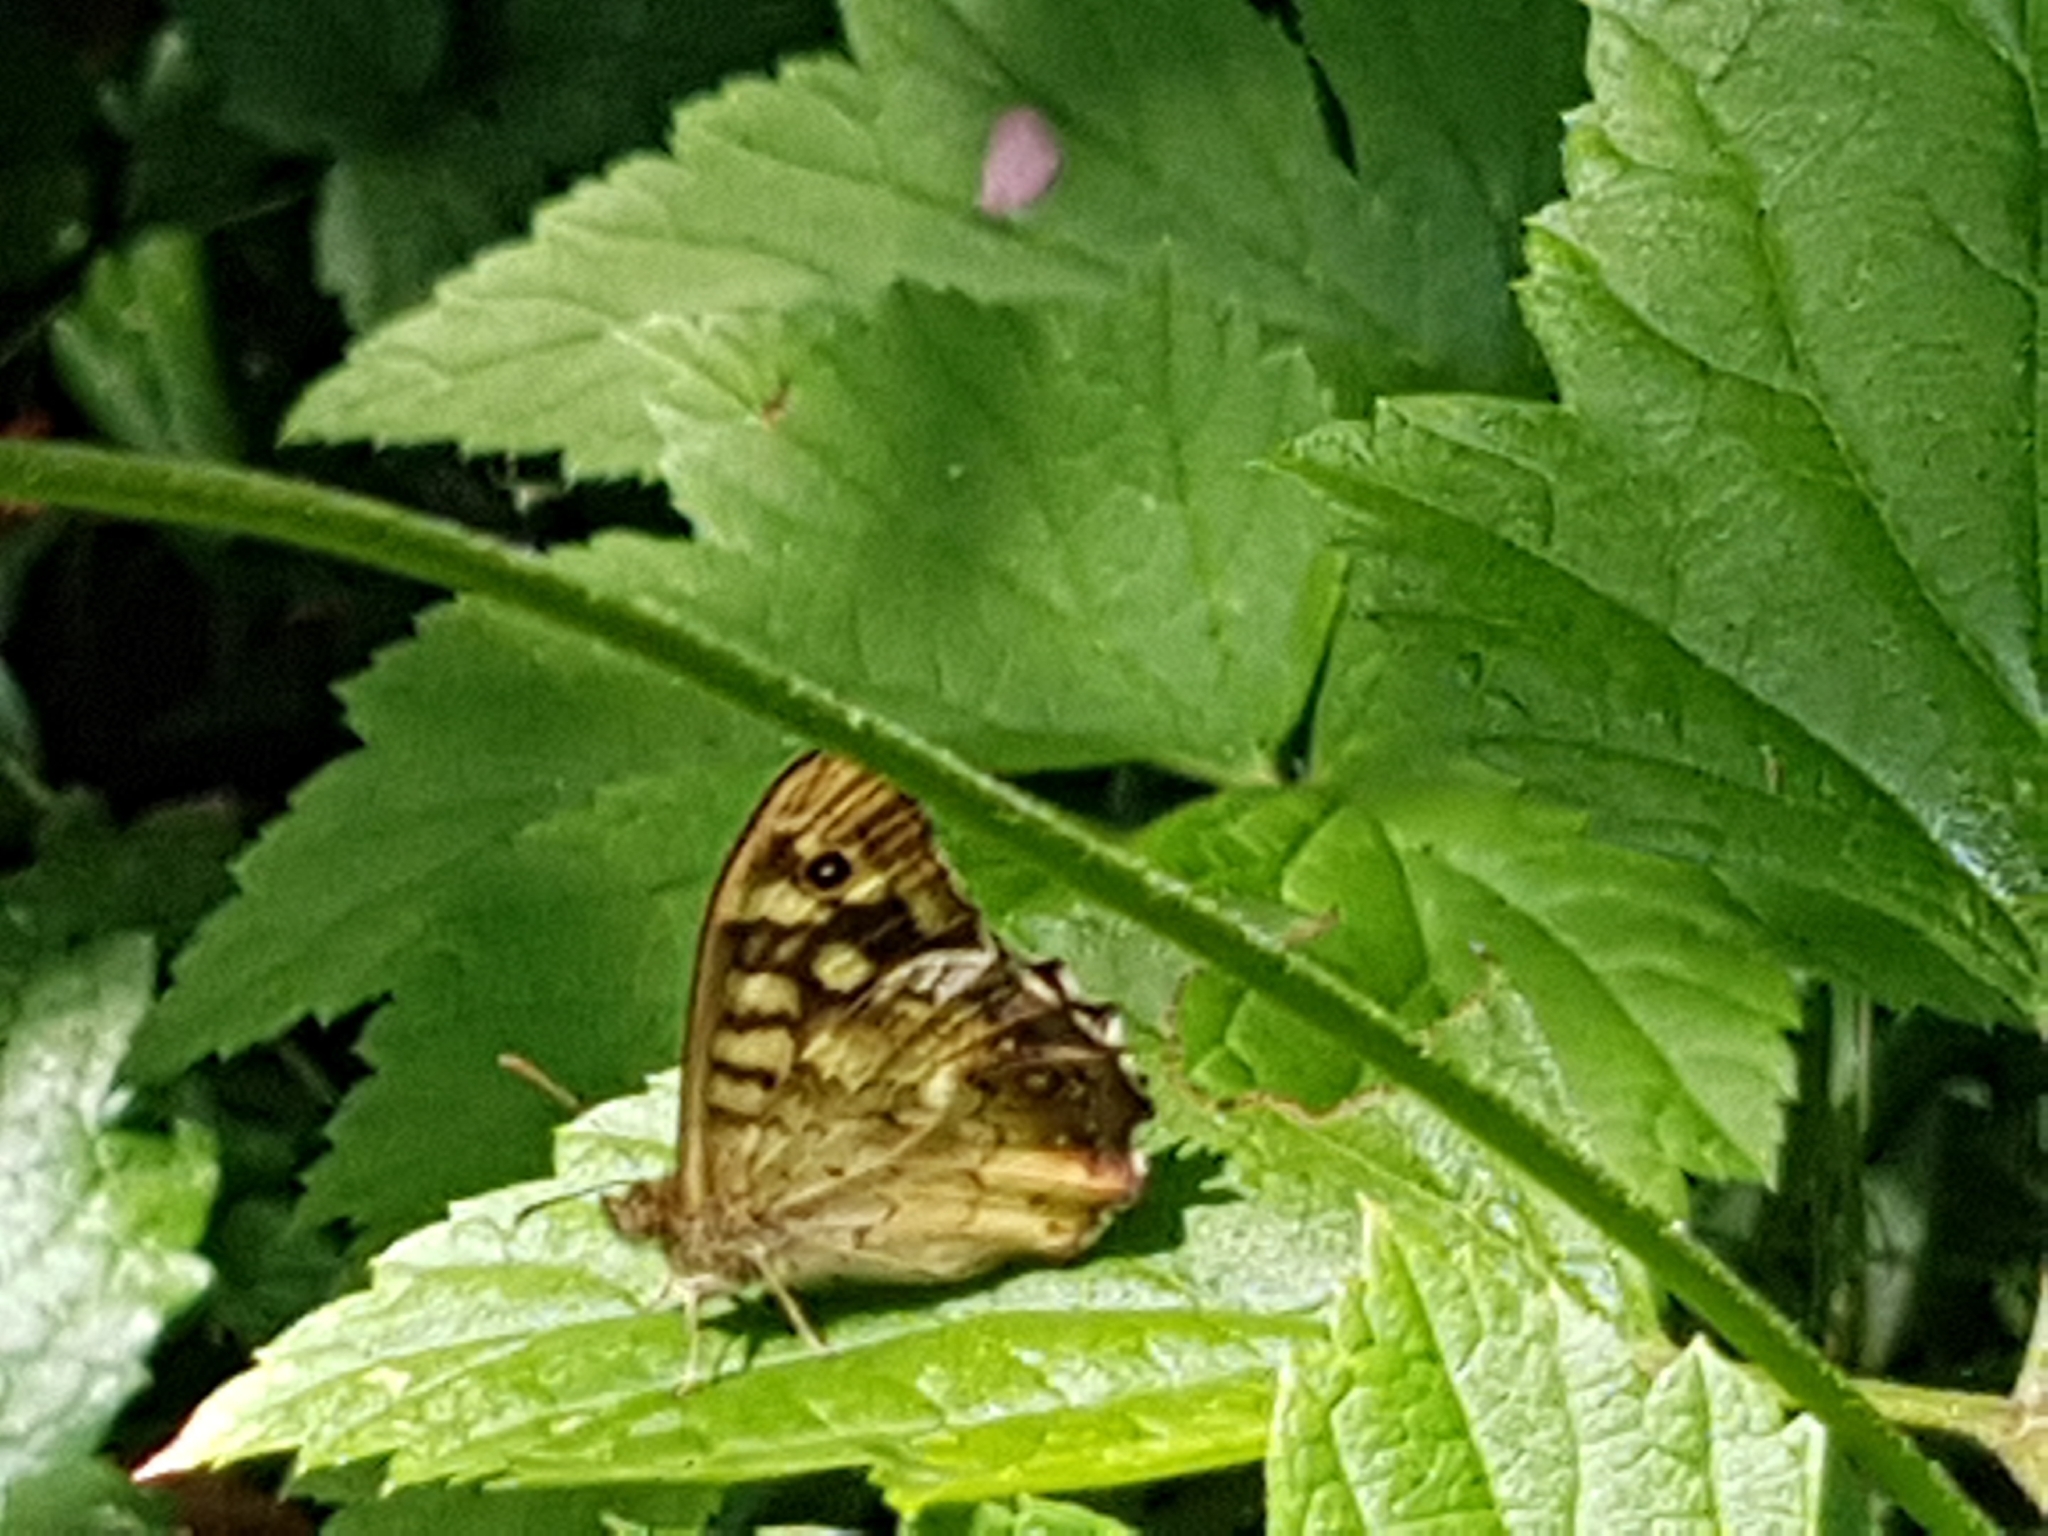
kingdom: Animalia
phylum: Arthropoda
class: Insecta
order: Lepidoptera
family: Nymphalidae
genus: Pararge
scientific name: Pararge aegeria
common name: Speckled wood
